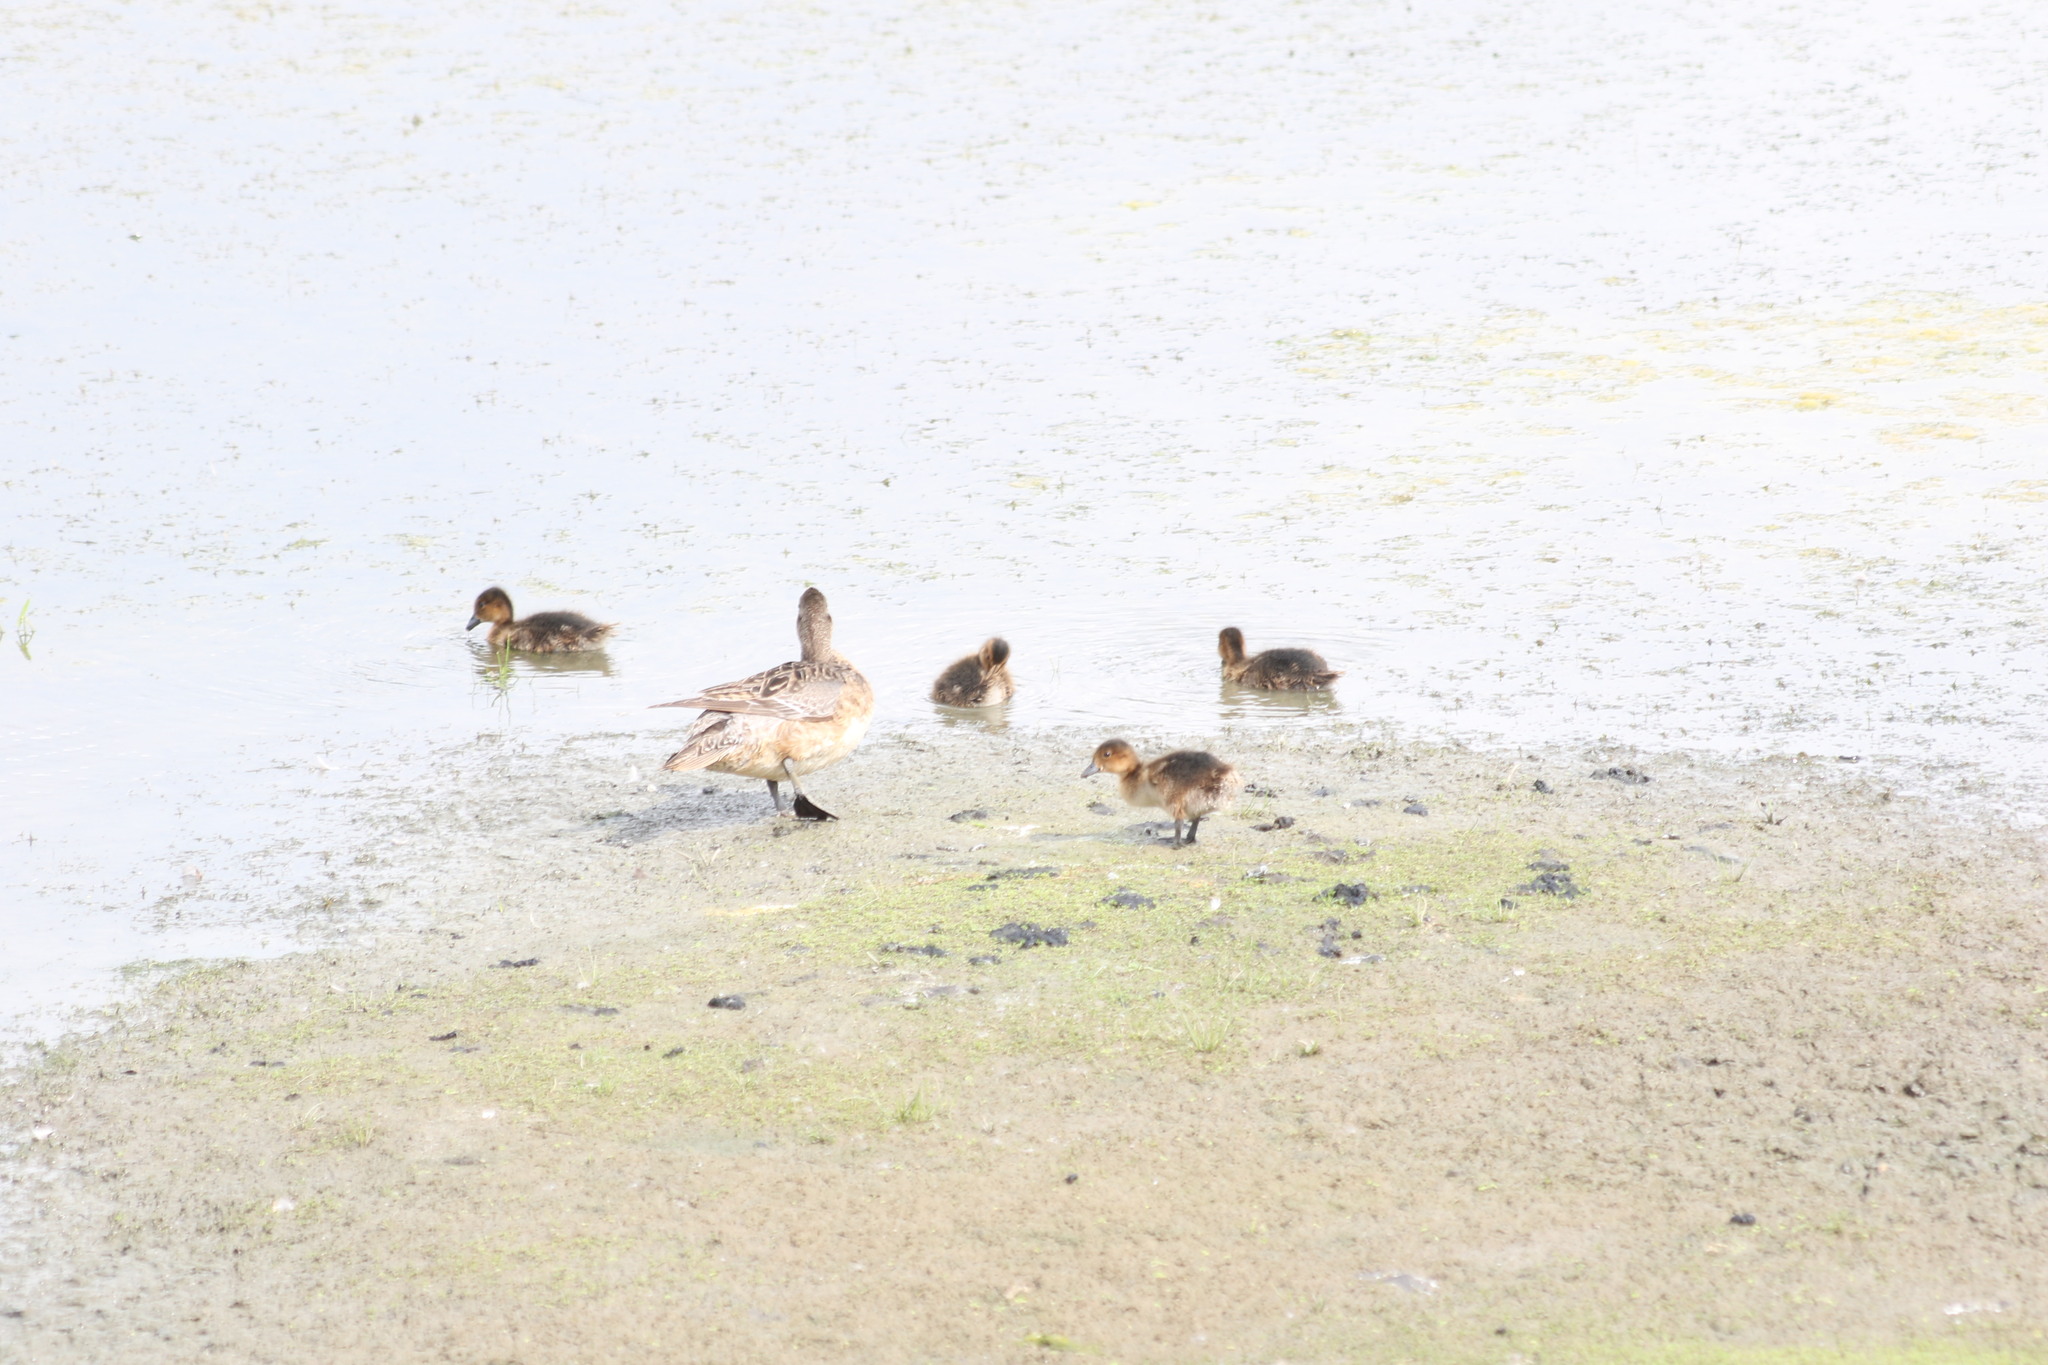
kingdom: Animalia
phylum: Chordata
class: Aves
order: Anseriformes
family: Anatidae
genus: Mareca
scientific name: Mareca penelope
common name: Eurasian wigeon
